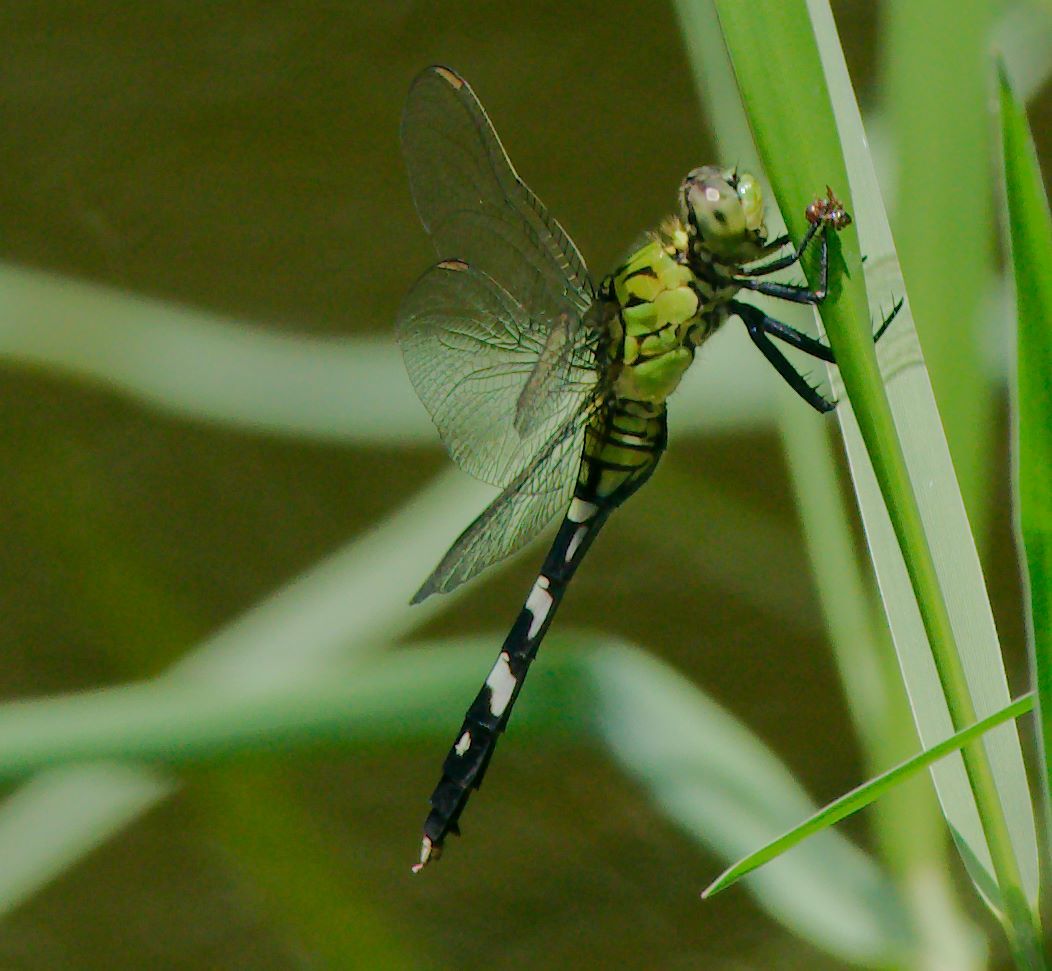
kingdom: Animalia
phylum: Arthropoda
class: Insecta
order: Odonata
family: Libellulidae
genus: Erythemis
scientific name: Erythemis simplicicollis
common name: Eastern pondhawk
